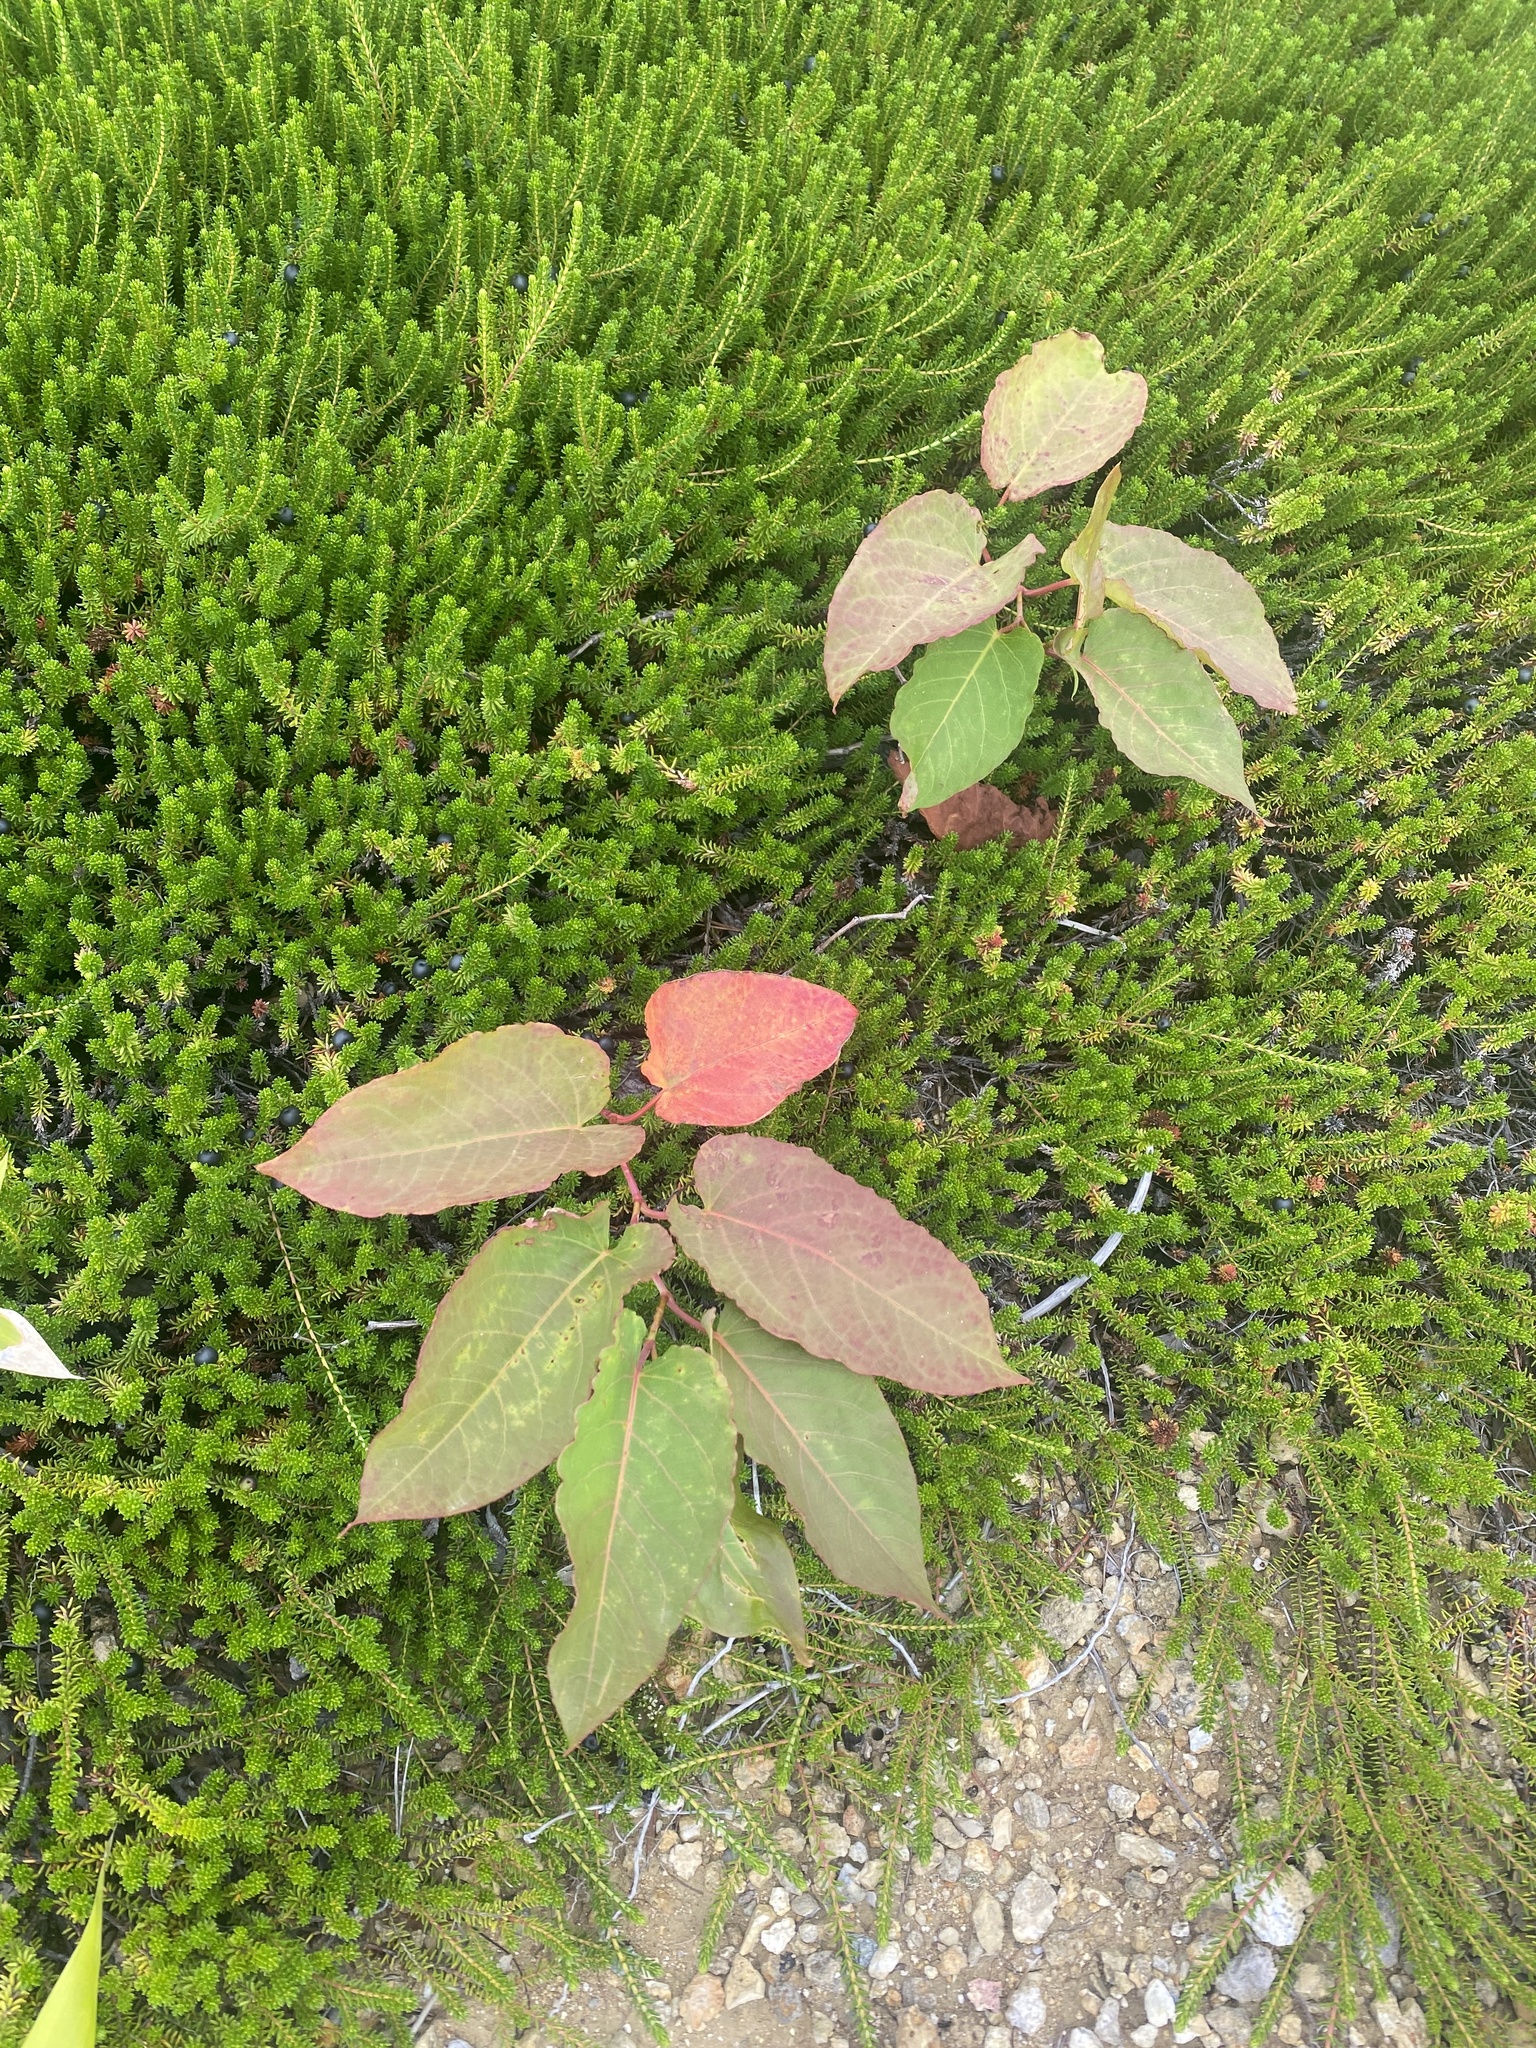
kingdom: Plantae
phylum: Tracheophyta
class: Magnoliopsida
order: Ericales
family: Ericaceae
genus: Empetrum
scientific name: Empetrum nigrum
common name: Black crowberry
